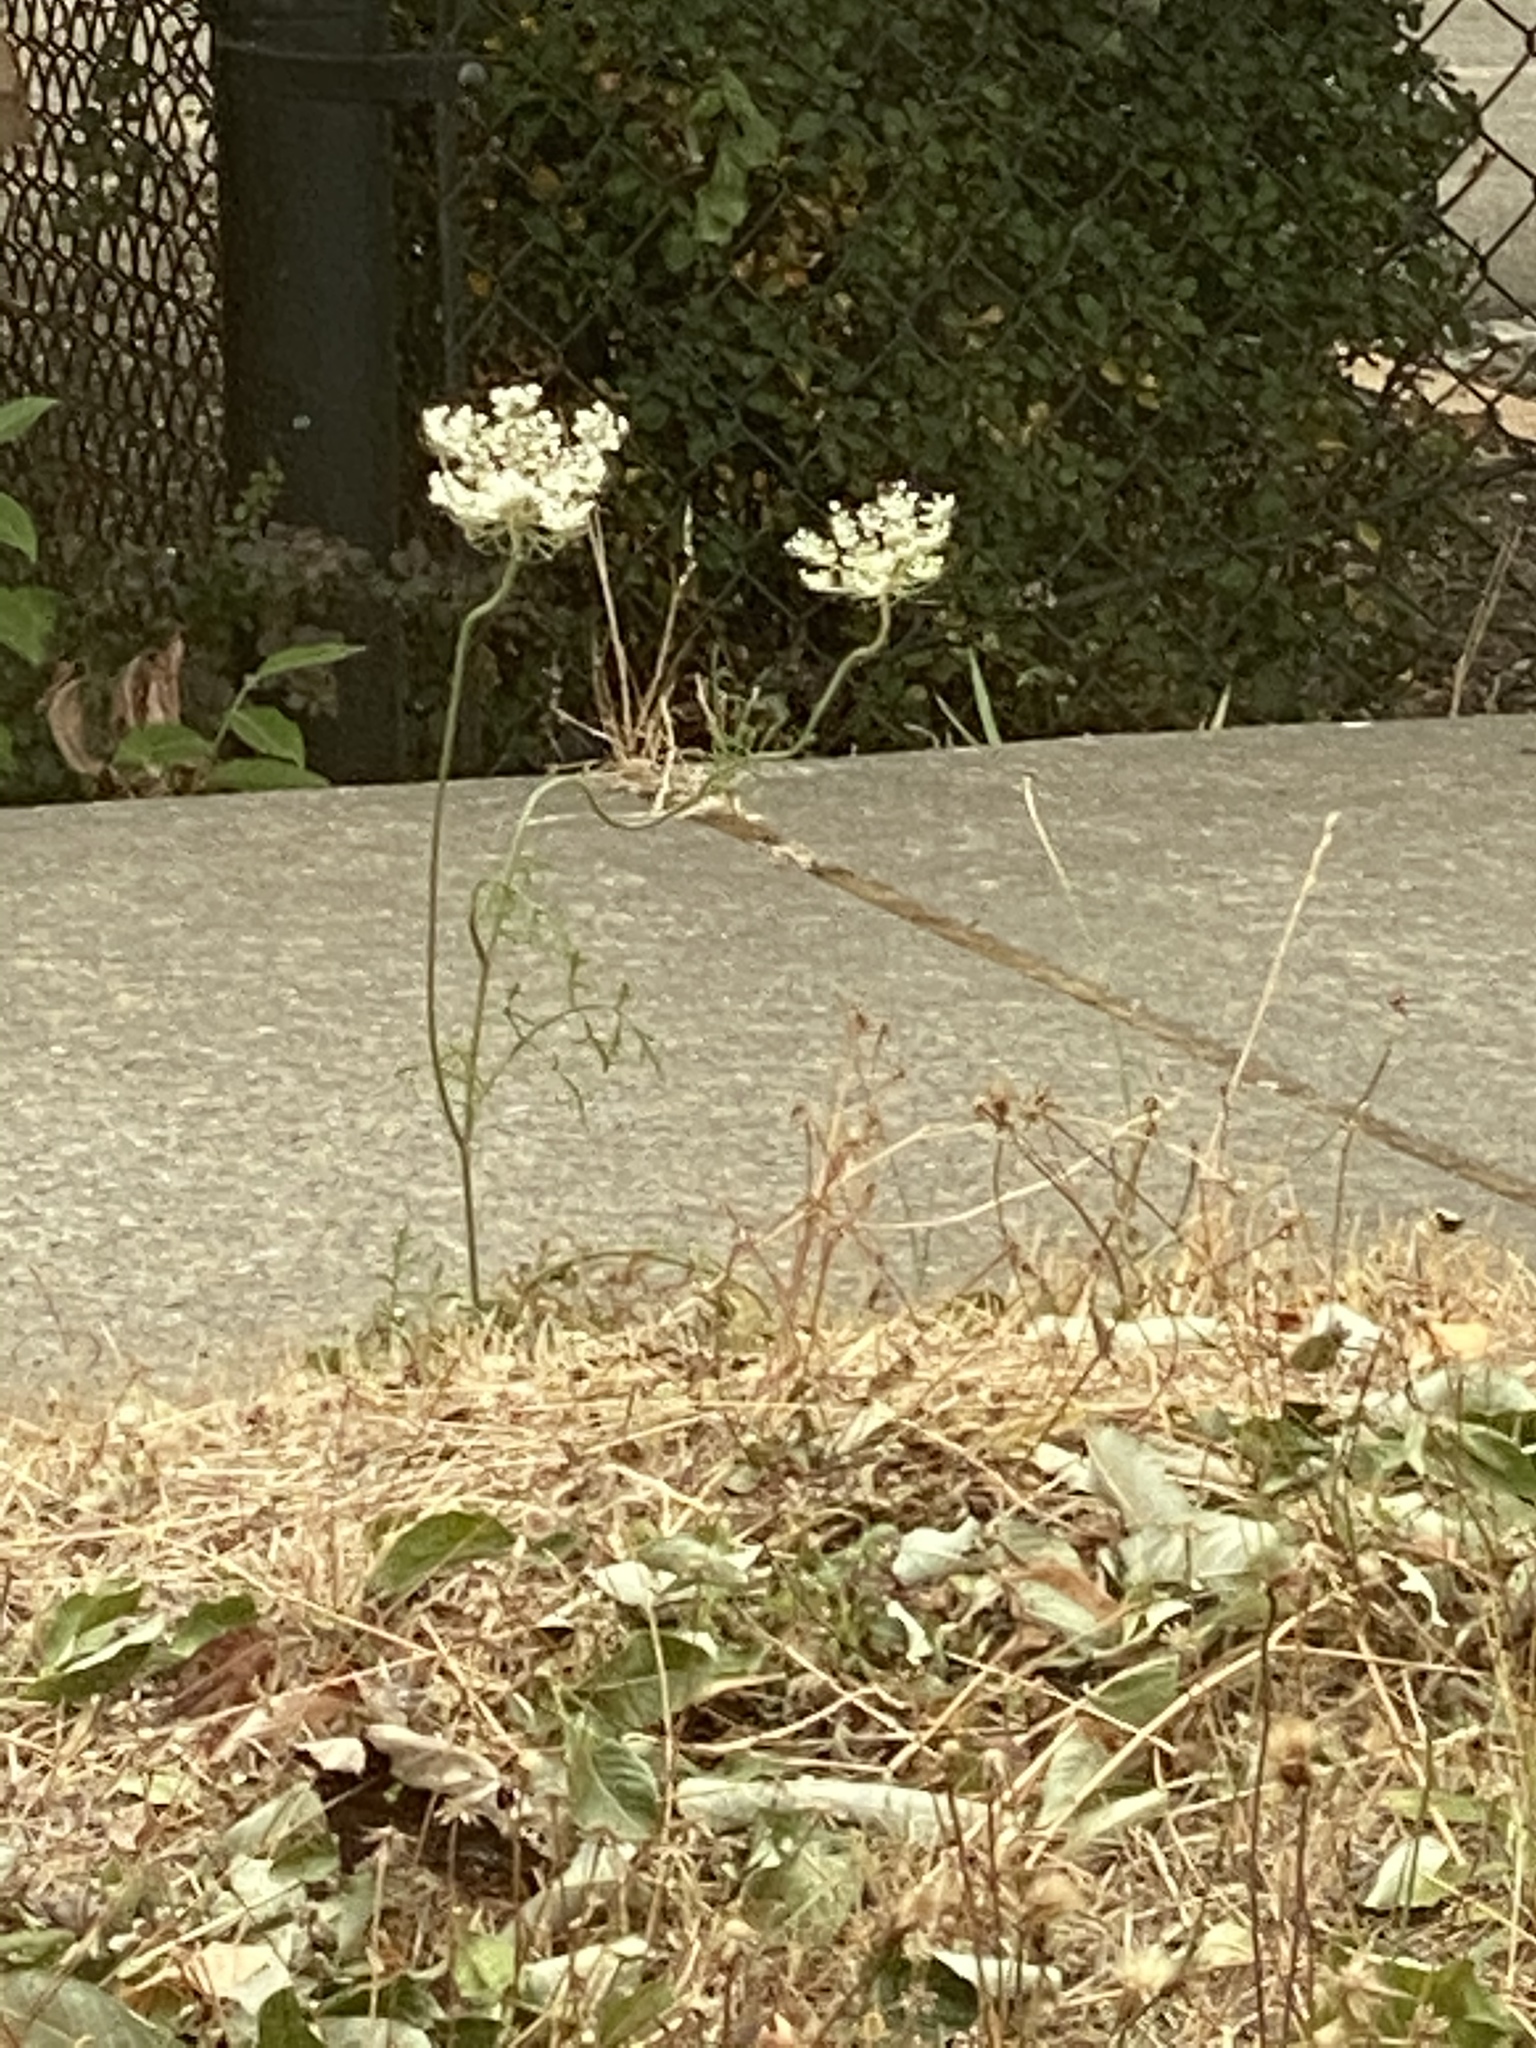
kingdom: Plantae
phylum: Tracheophyta
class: Magnoliopsida
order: Apiales
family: Apiaceae
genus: Daucus
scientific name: Daucus carota
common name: Wild carrot
